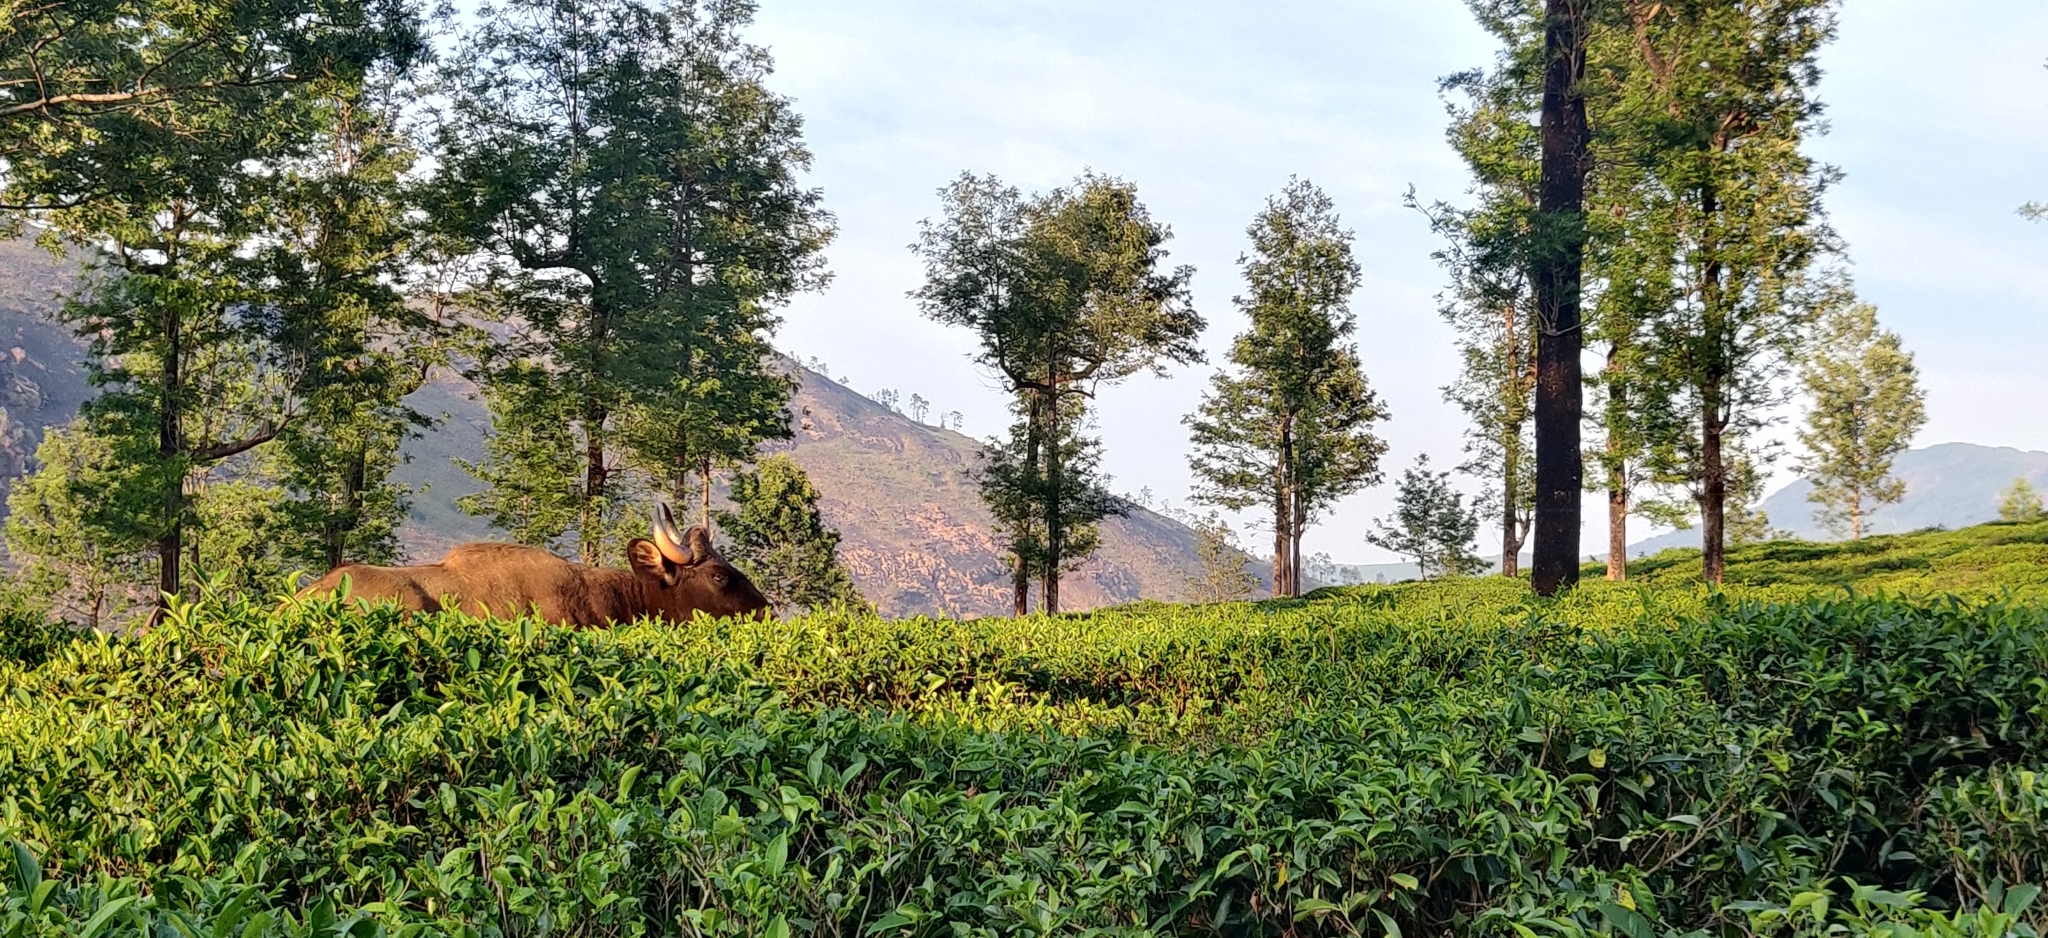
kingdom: Animalia
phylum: Chordata
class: Mammalia
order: Artiodactyla
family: Bovidae
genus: Bos
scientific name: Bos frontalis
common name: Gaur
